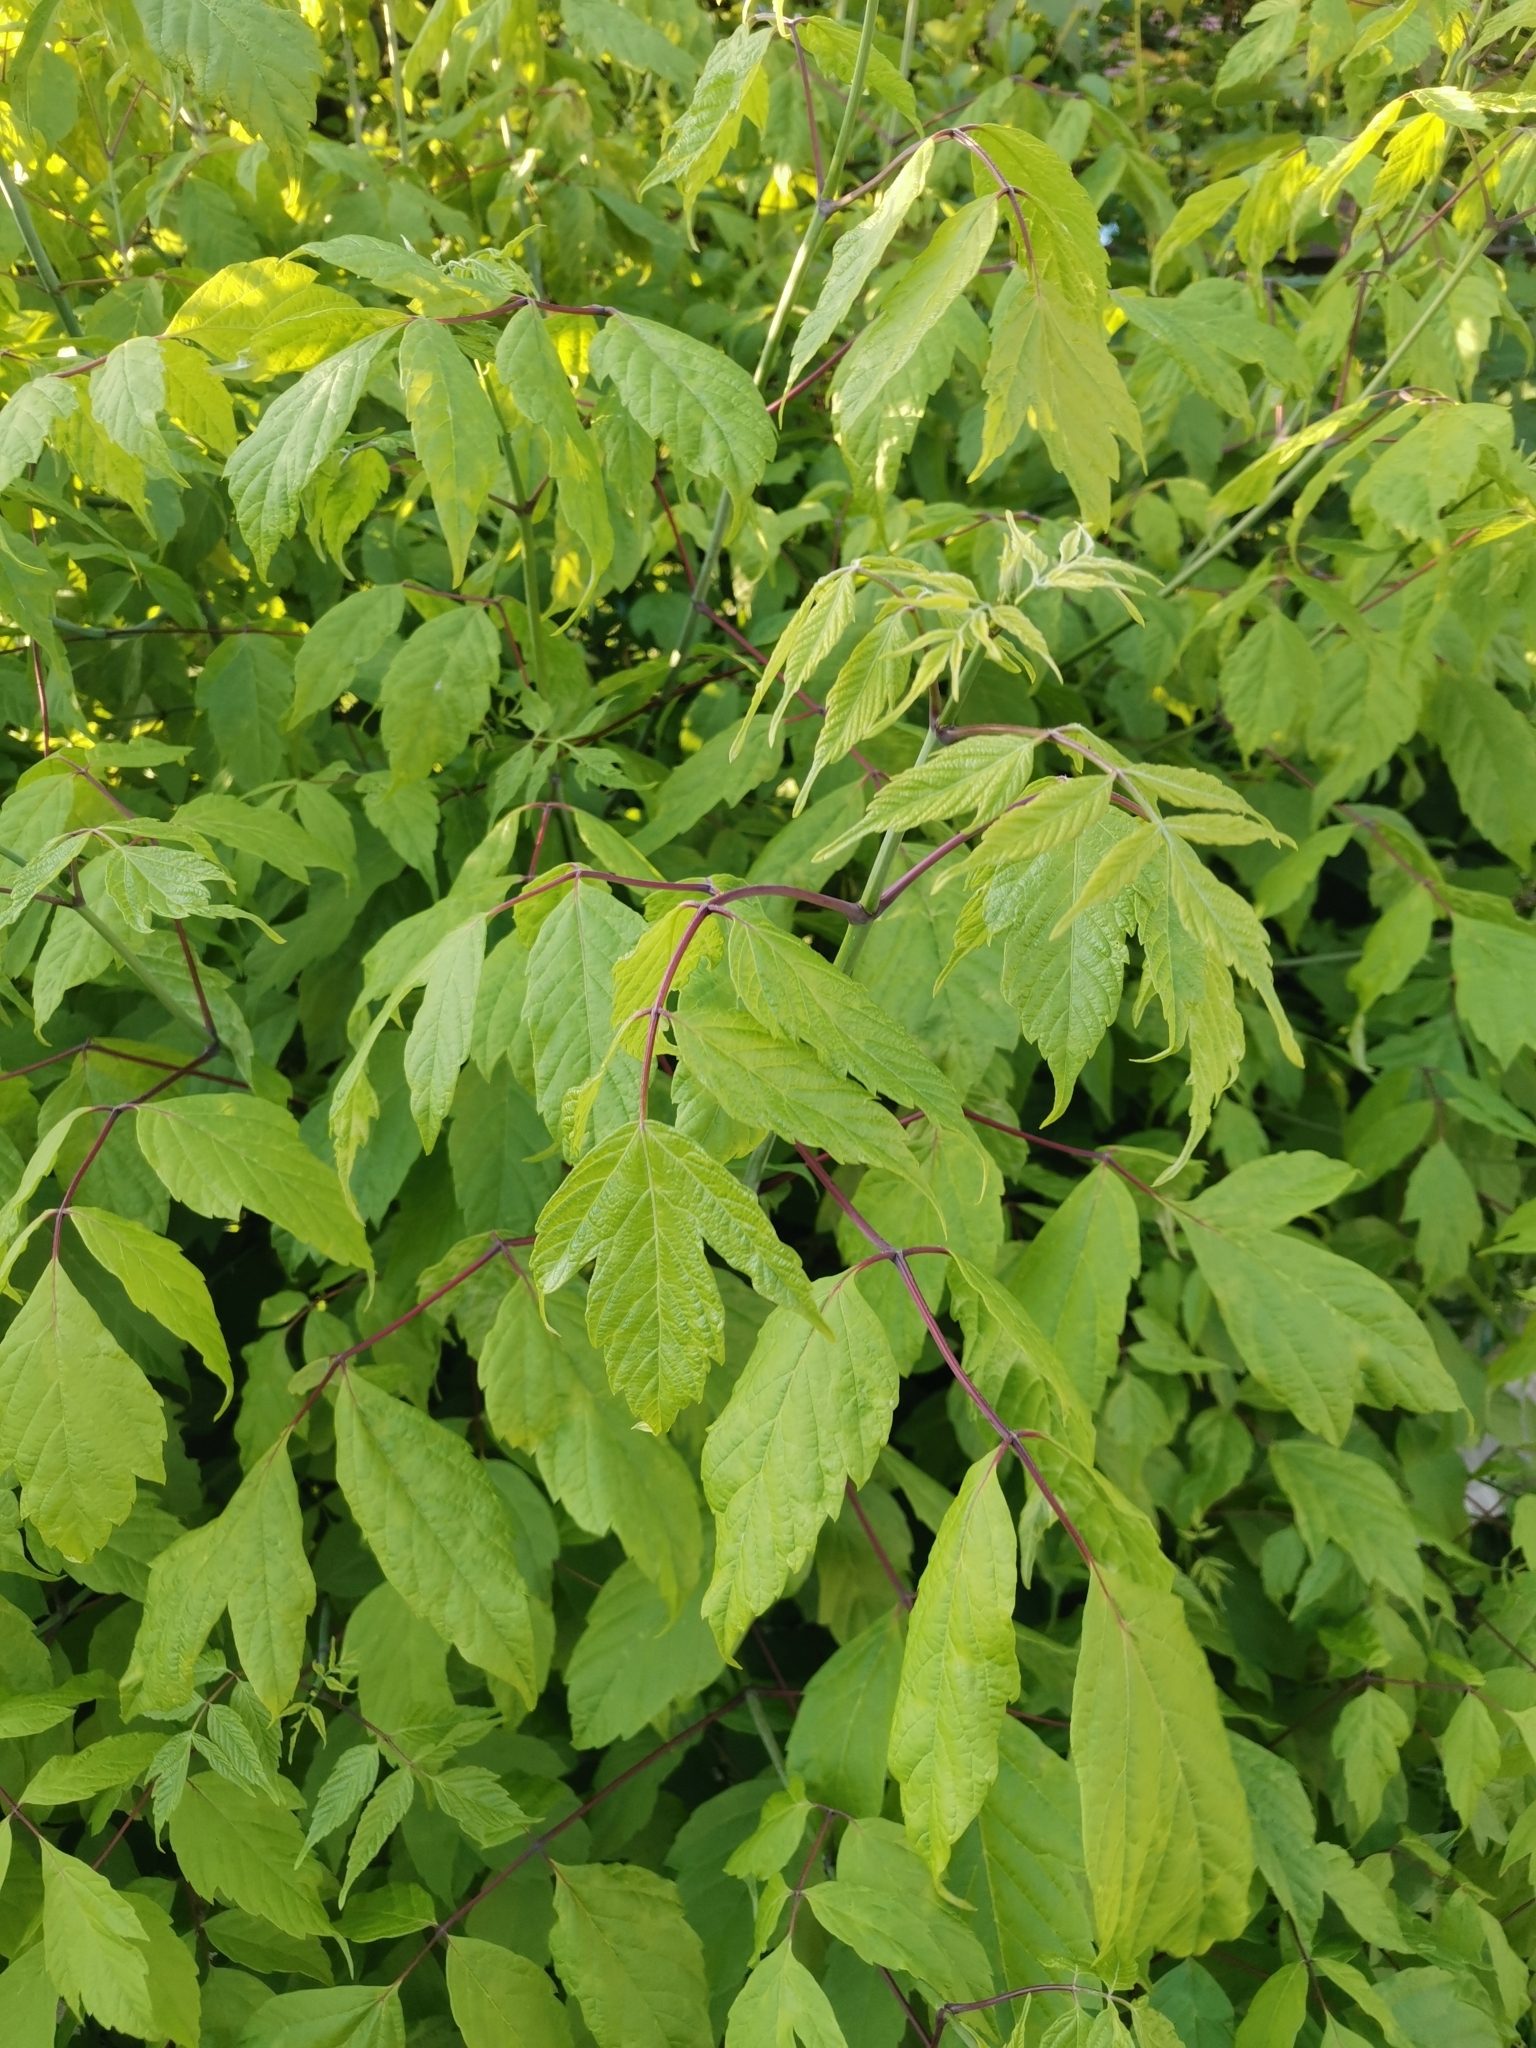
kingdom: Plantae
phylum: Tracheophyta
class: Magnoliopsida
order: Sapindales
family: Sapindaceae
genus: Acer
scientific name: Acer negundo
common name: Ashleaf maple
